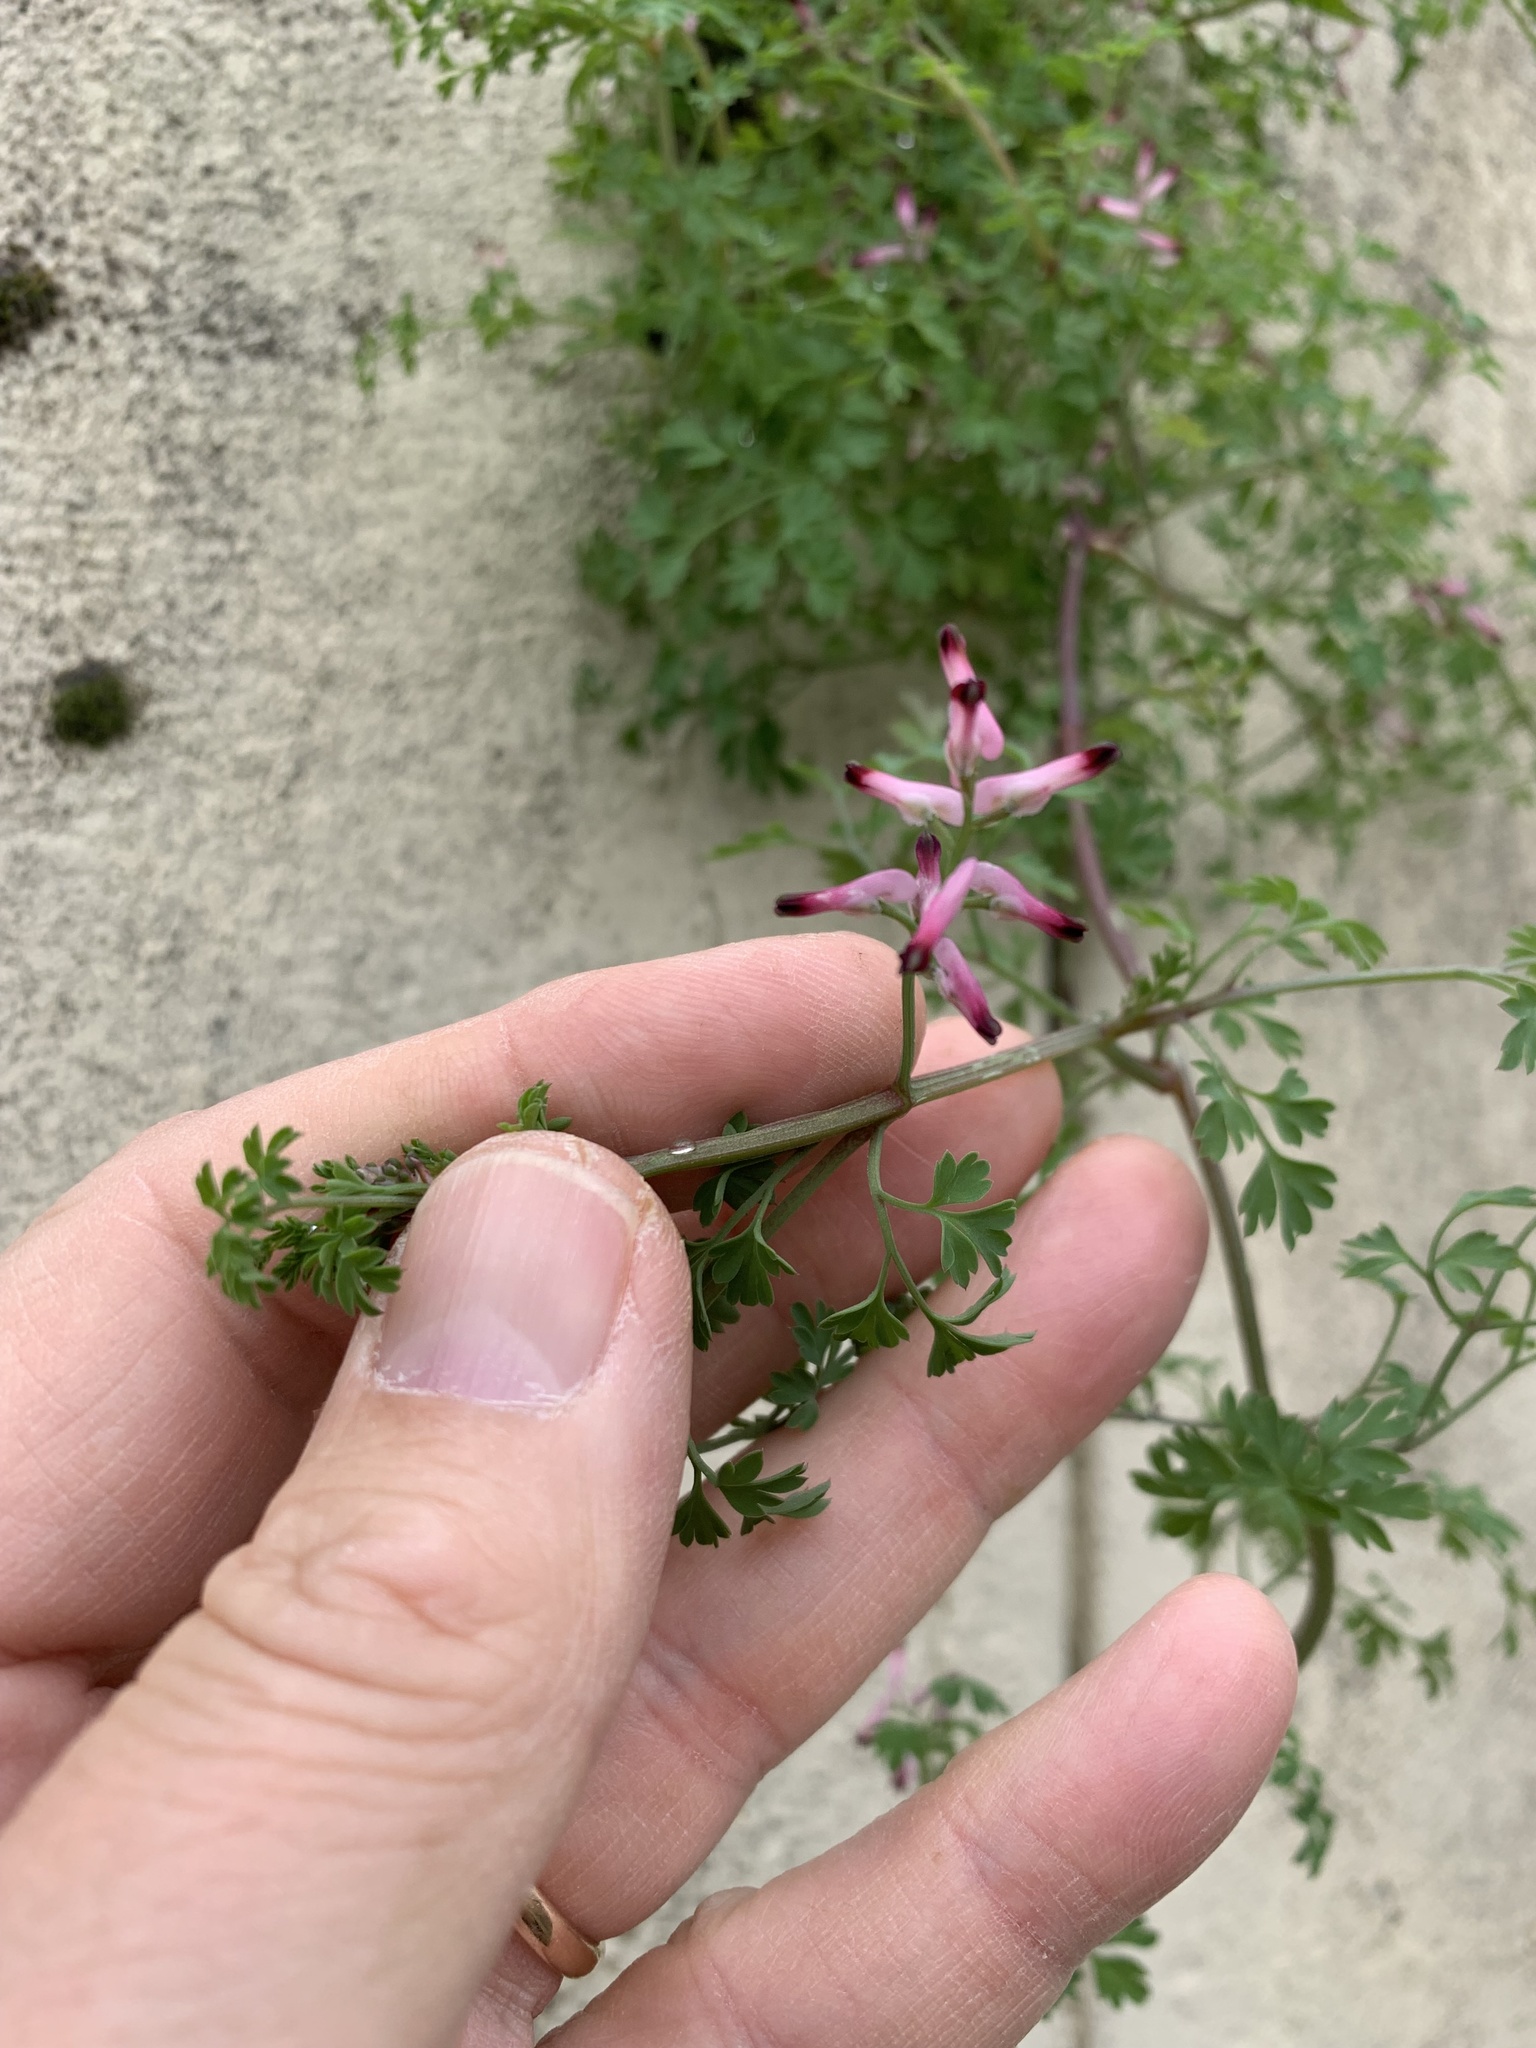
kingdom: Plantae
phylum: Tracheophyta
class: Magnoliopsida
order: Ranunculales
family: Papaveraceae
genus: Fumaria
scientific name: Fumaria muralis
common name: Common ramping-fumitory
